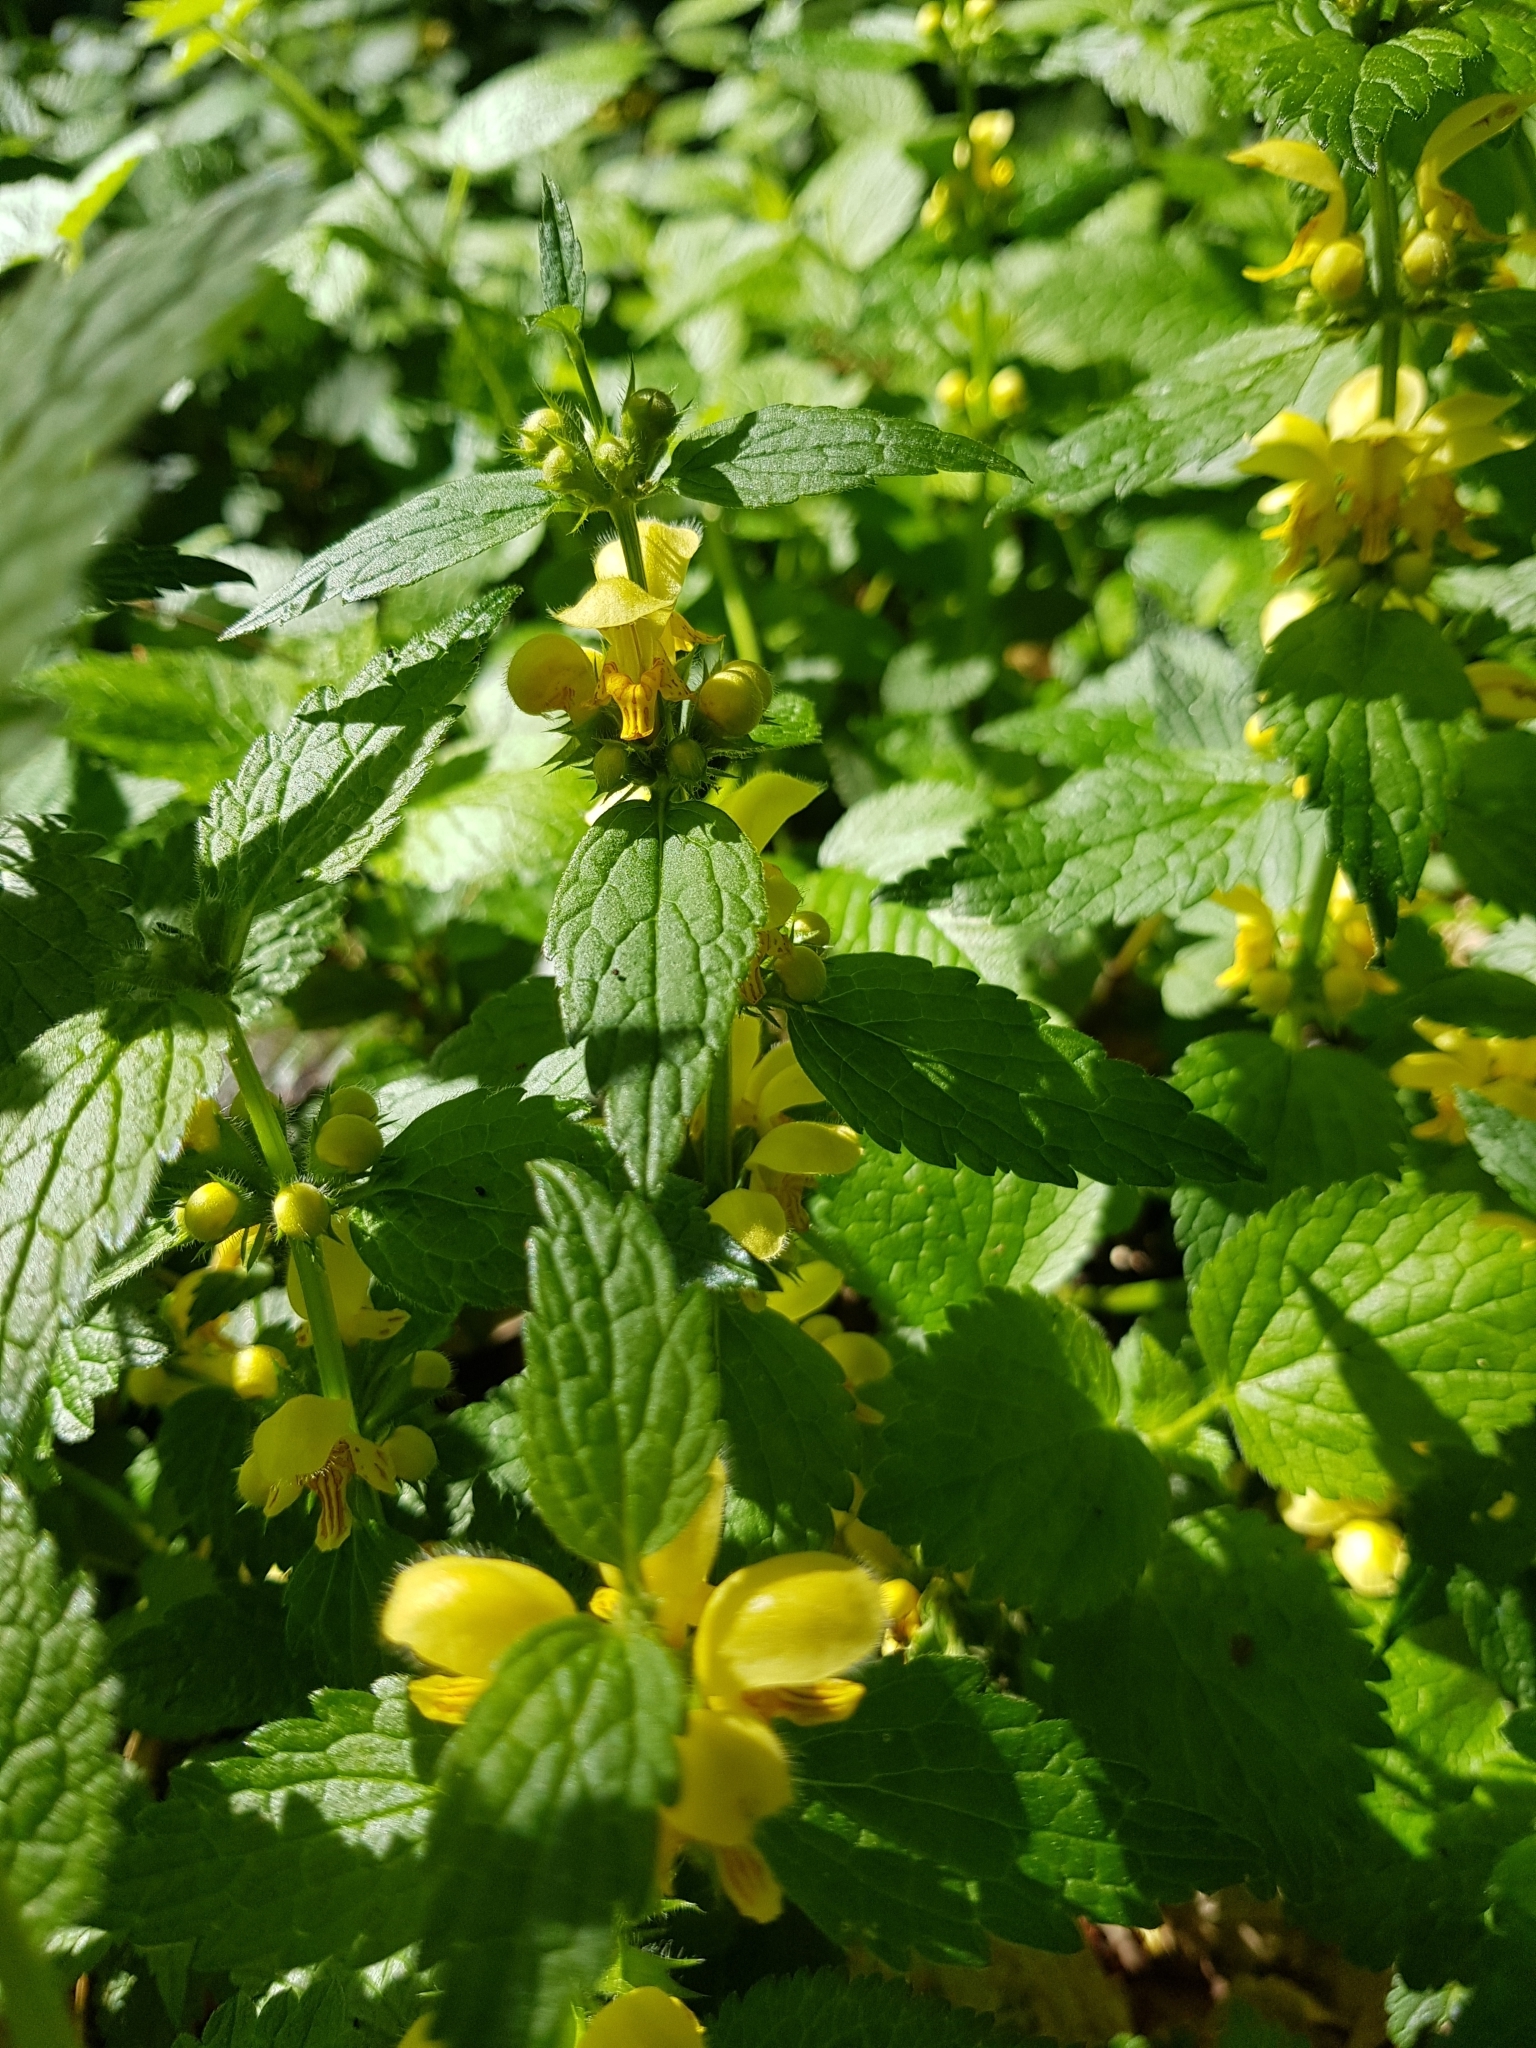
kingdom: Plantae
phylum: Tracheophyta
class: Magnoliopsida
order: Lamiales
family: Lamiaceae
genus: Lamium
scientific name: Lamium galeobdolon
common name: Yellow archangel
